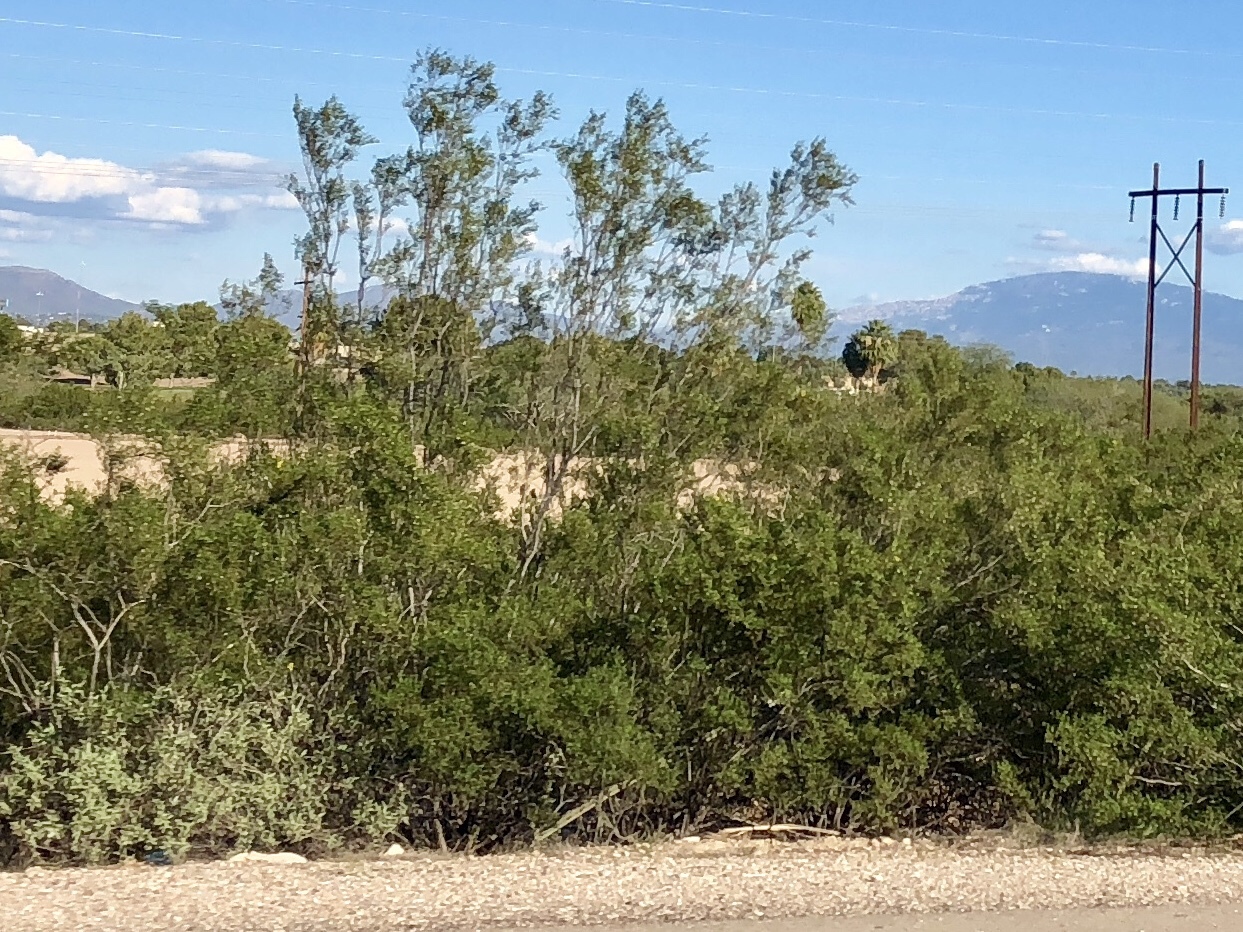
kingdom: Plantae
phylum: Tracheophyta
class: Magnoliopsida
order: Zygophyllales
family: Zygophyllaceae
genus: Larrea
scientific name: Larrea tridentata
